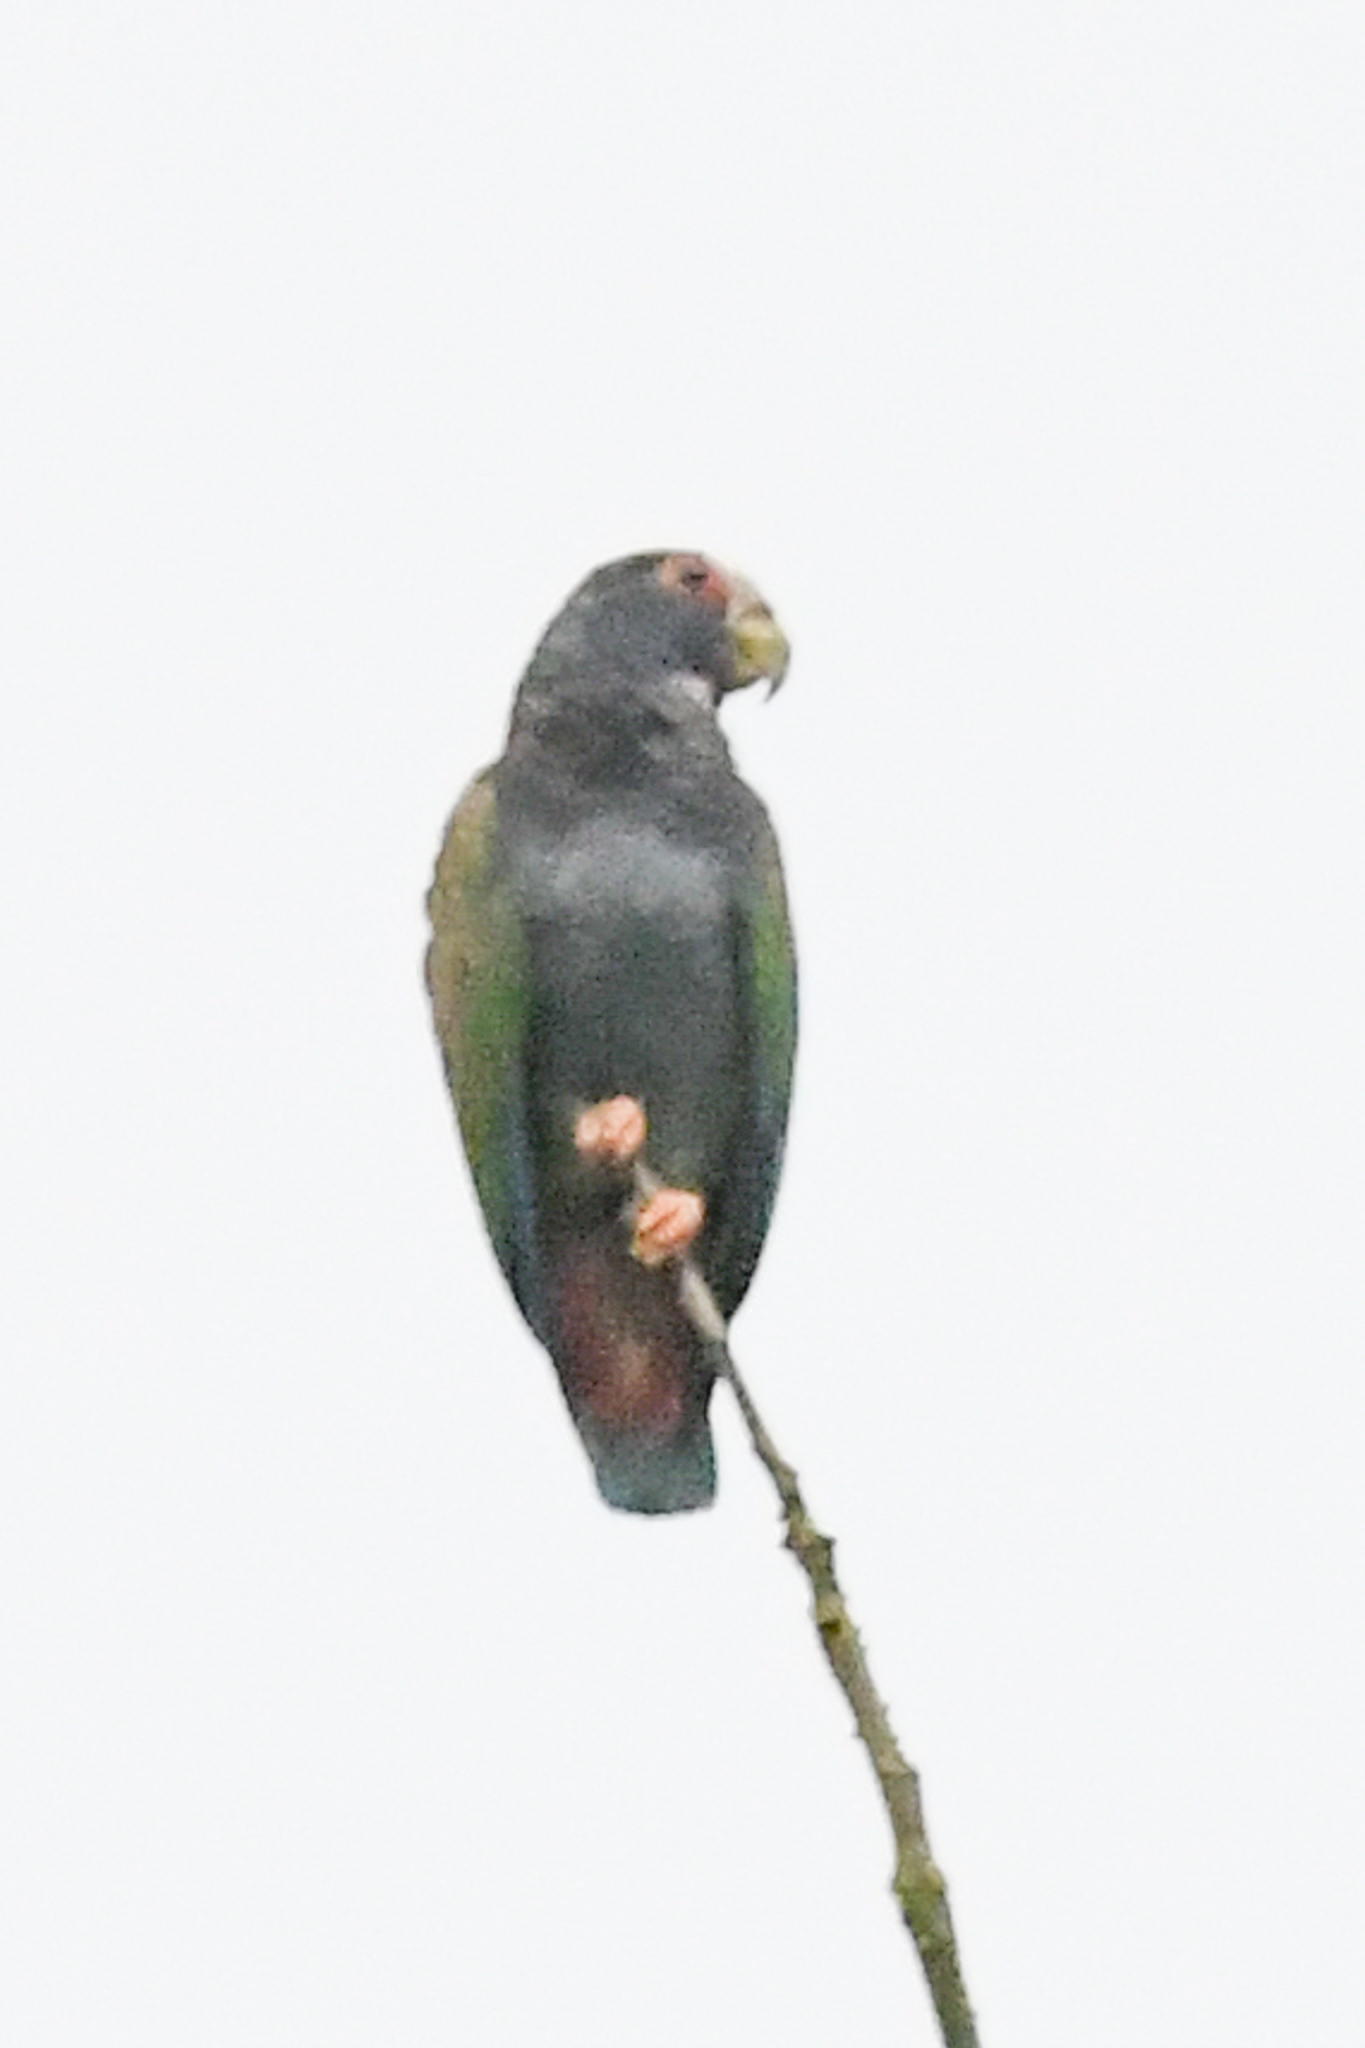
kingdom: Animalia
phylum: Chordata
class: Aves
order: Psittaciformes
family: Psittacidae
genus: Pionus
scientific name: Pionus senilis
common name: White-crowned parrot
